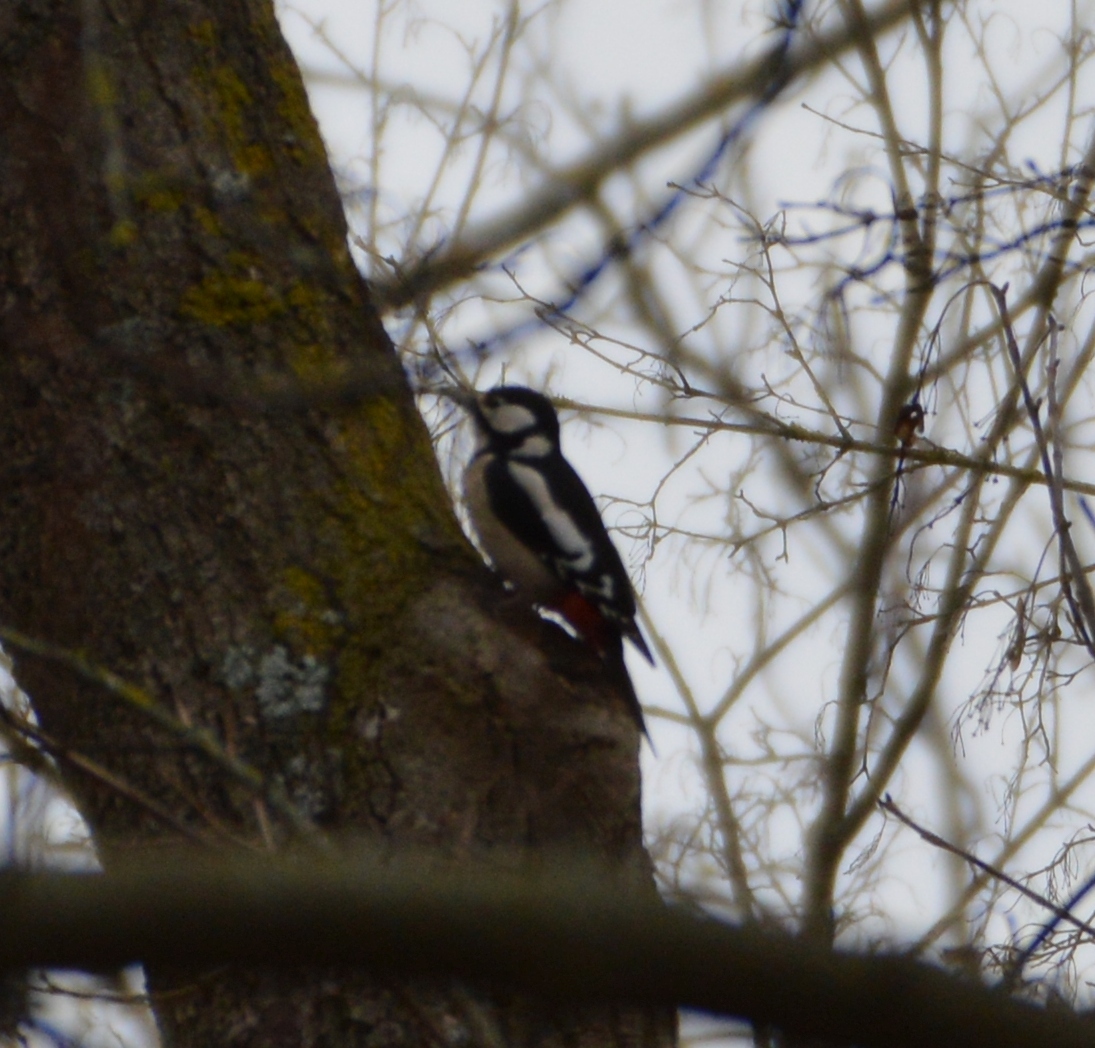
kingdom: Animalia
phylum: Chordata
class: Aves
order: Piciformes
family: Picidae
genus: Dendrocopos
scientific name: Dendrocopos major
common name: Great spotted woodpecker
